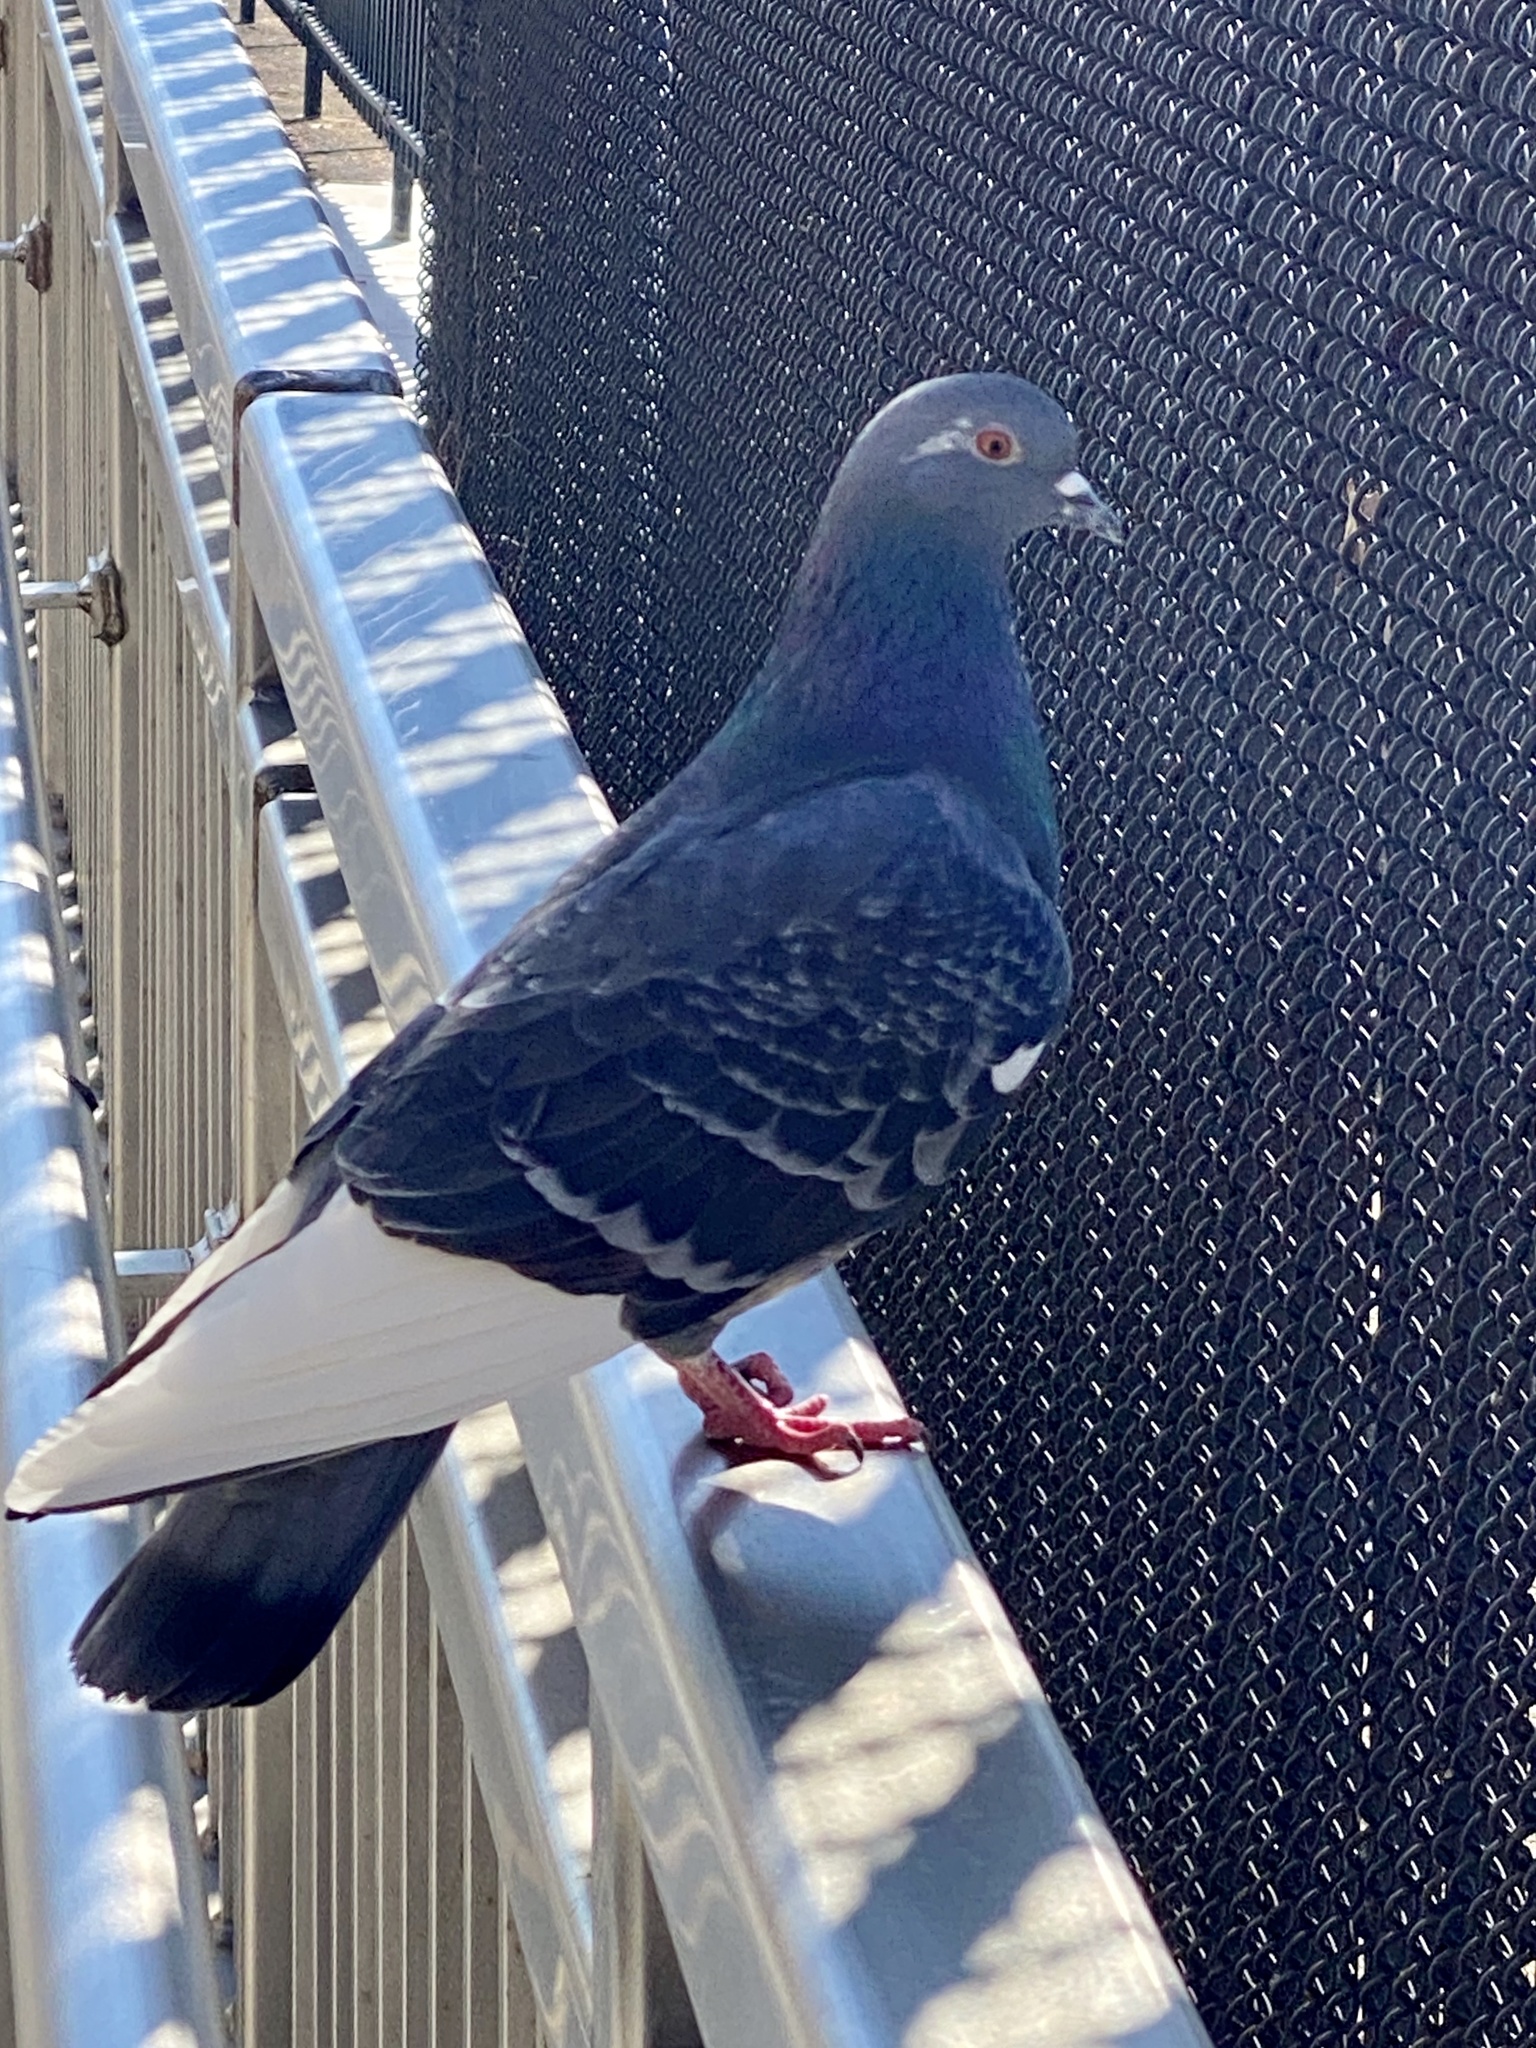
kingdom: Animalia
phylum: Chordata
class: Aves
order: Columbiformes
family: Columbidae
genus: Columba
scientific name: Columba livia
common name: Rock pigeon
